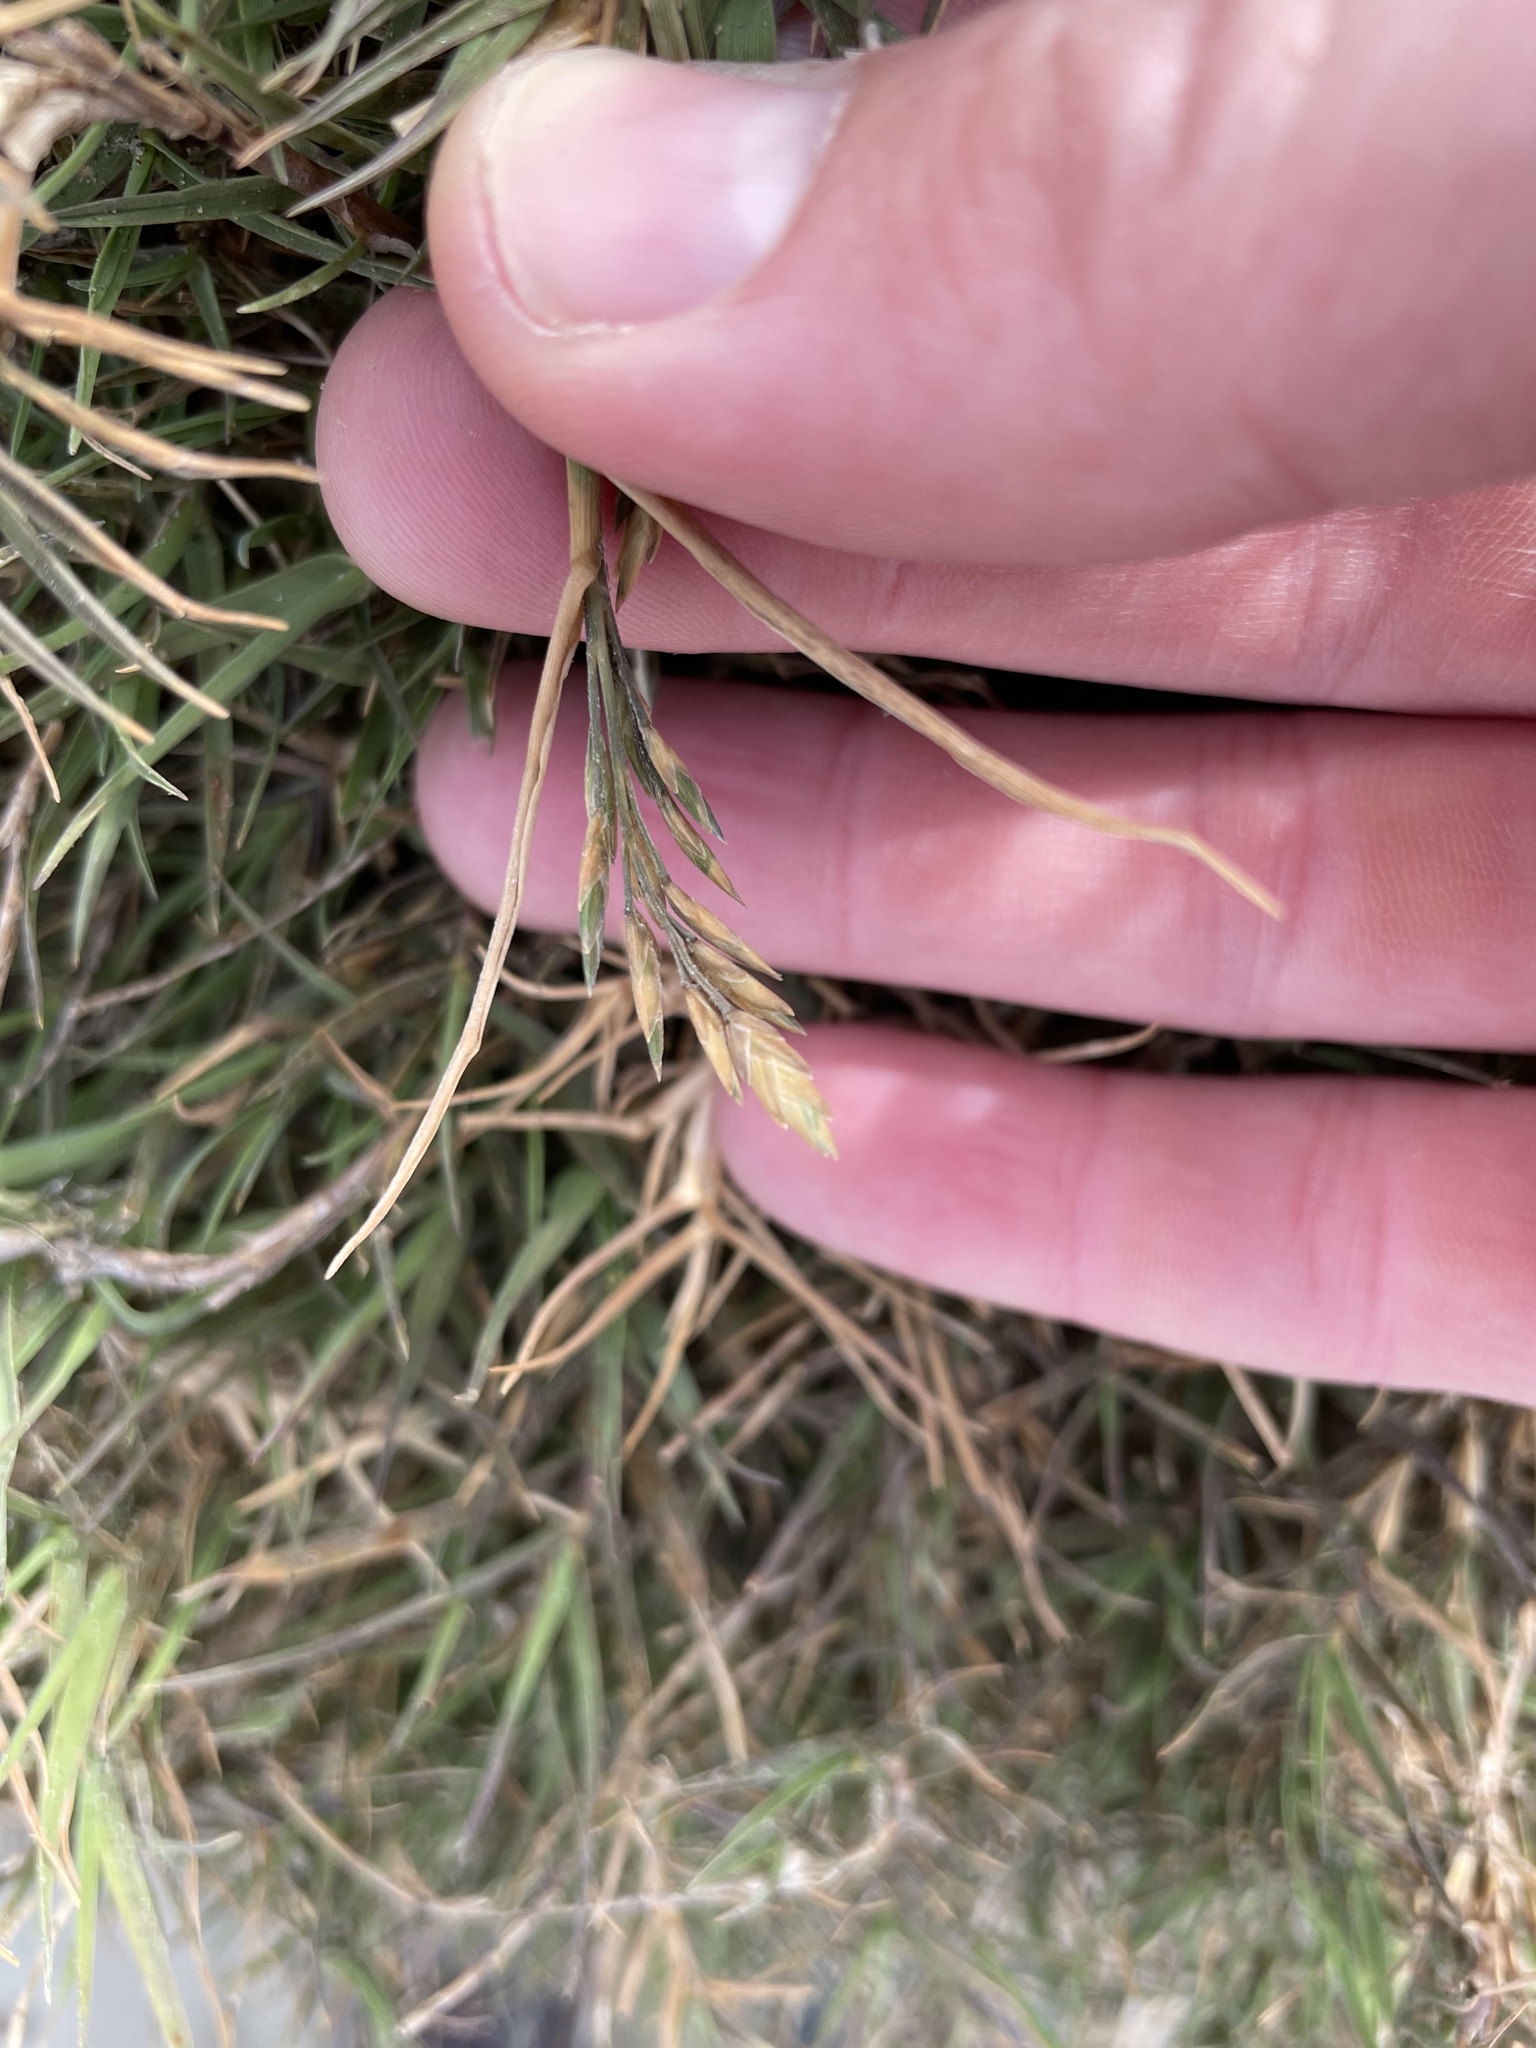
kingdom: Plantae
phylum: Tracheophyta
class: Liliopsida
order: Poales
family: Poaceae
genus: Distichlis
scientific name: Distichlis spicata
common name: Saltgrass
